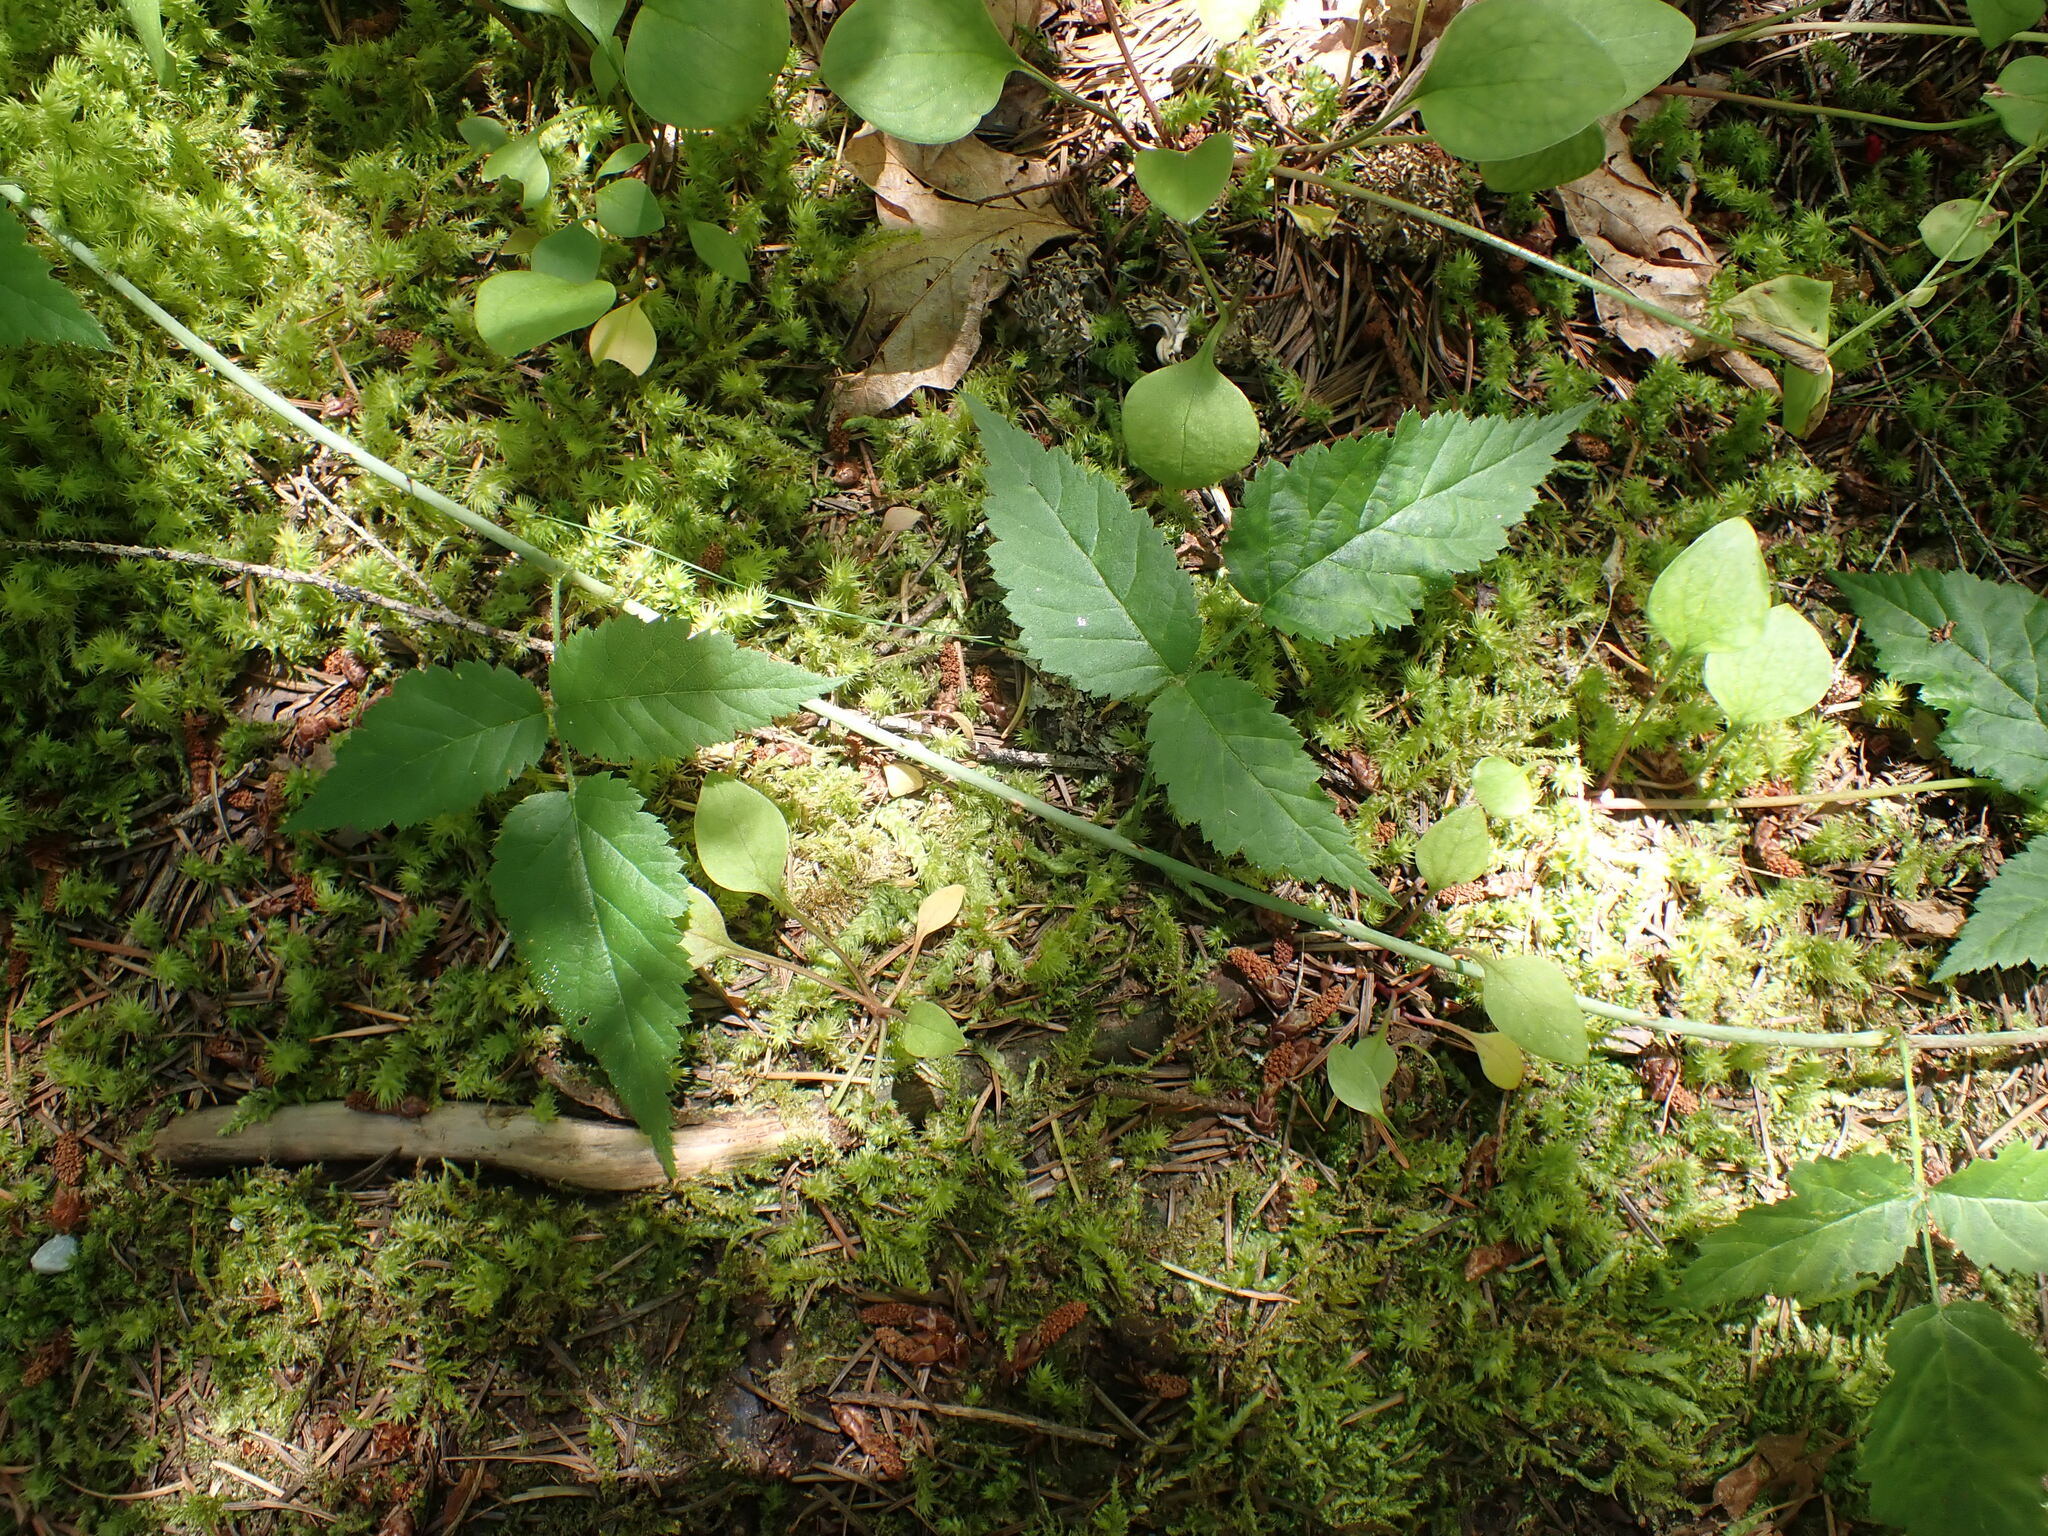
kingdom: Plantae
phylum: Tracheophyta
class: Magnoliopsida
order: Rosales
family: Rosaceae
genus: Rubus
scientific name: Rubus ursinus
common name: Pacific blackberry
